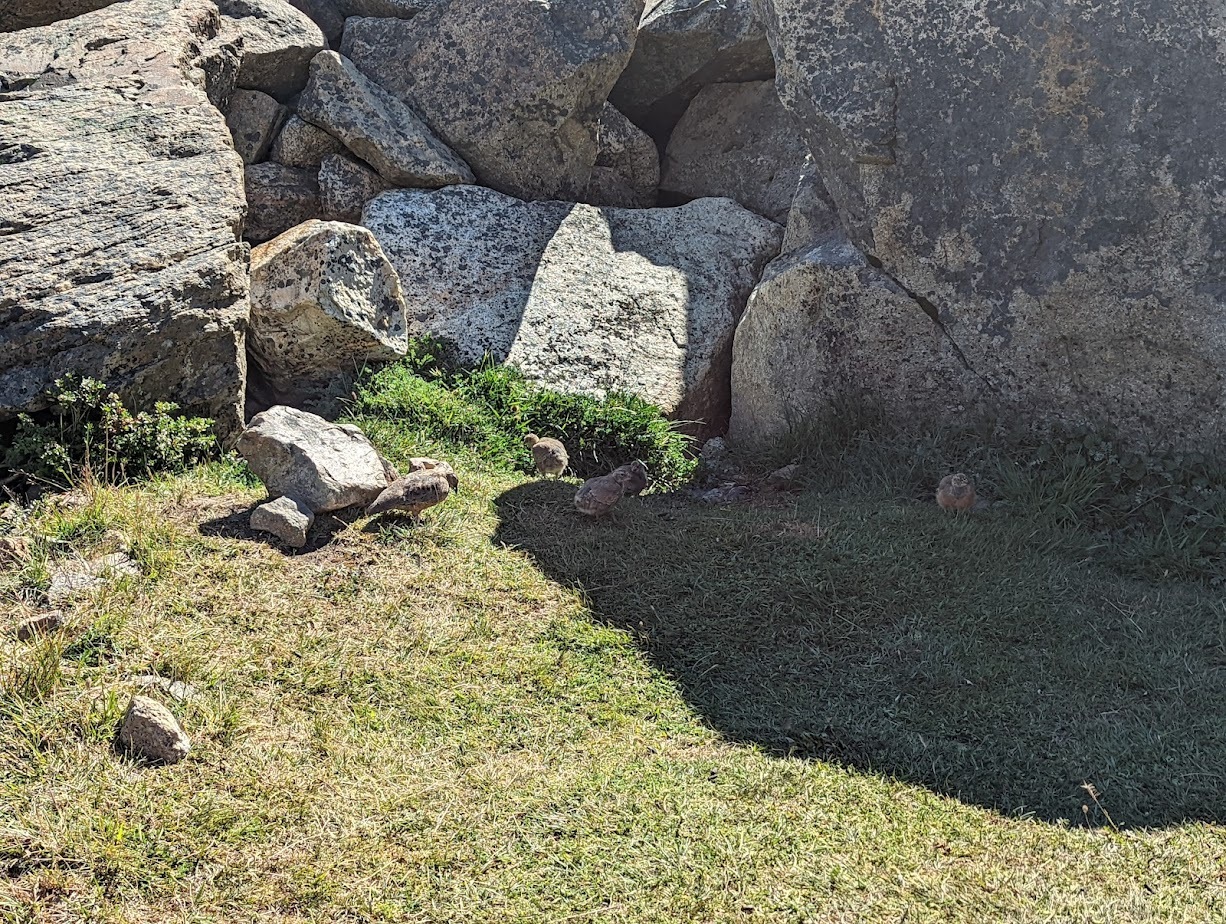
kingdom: Animalia
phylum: Chordata
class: Aves
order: Charadriiformes
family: Thinocoridae
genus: Attagis
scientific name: Attagis gayi
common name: Rufous-bellied seedsnipe
